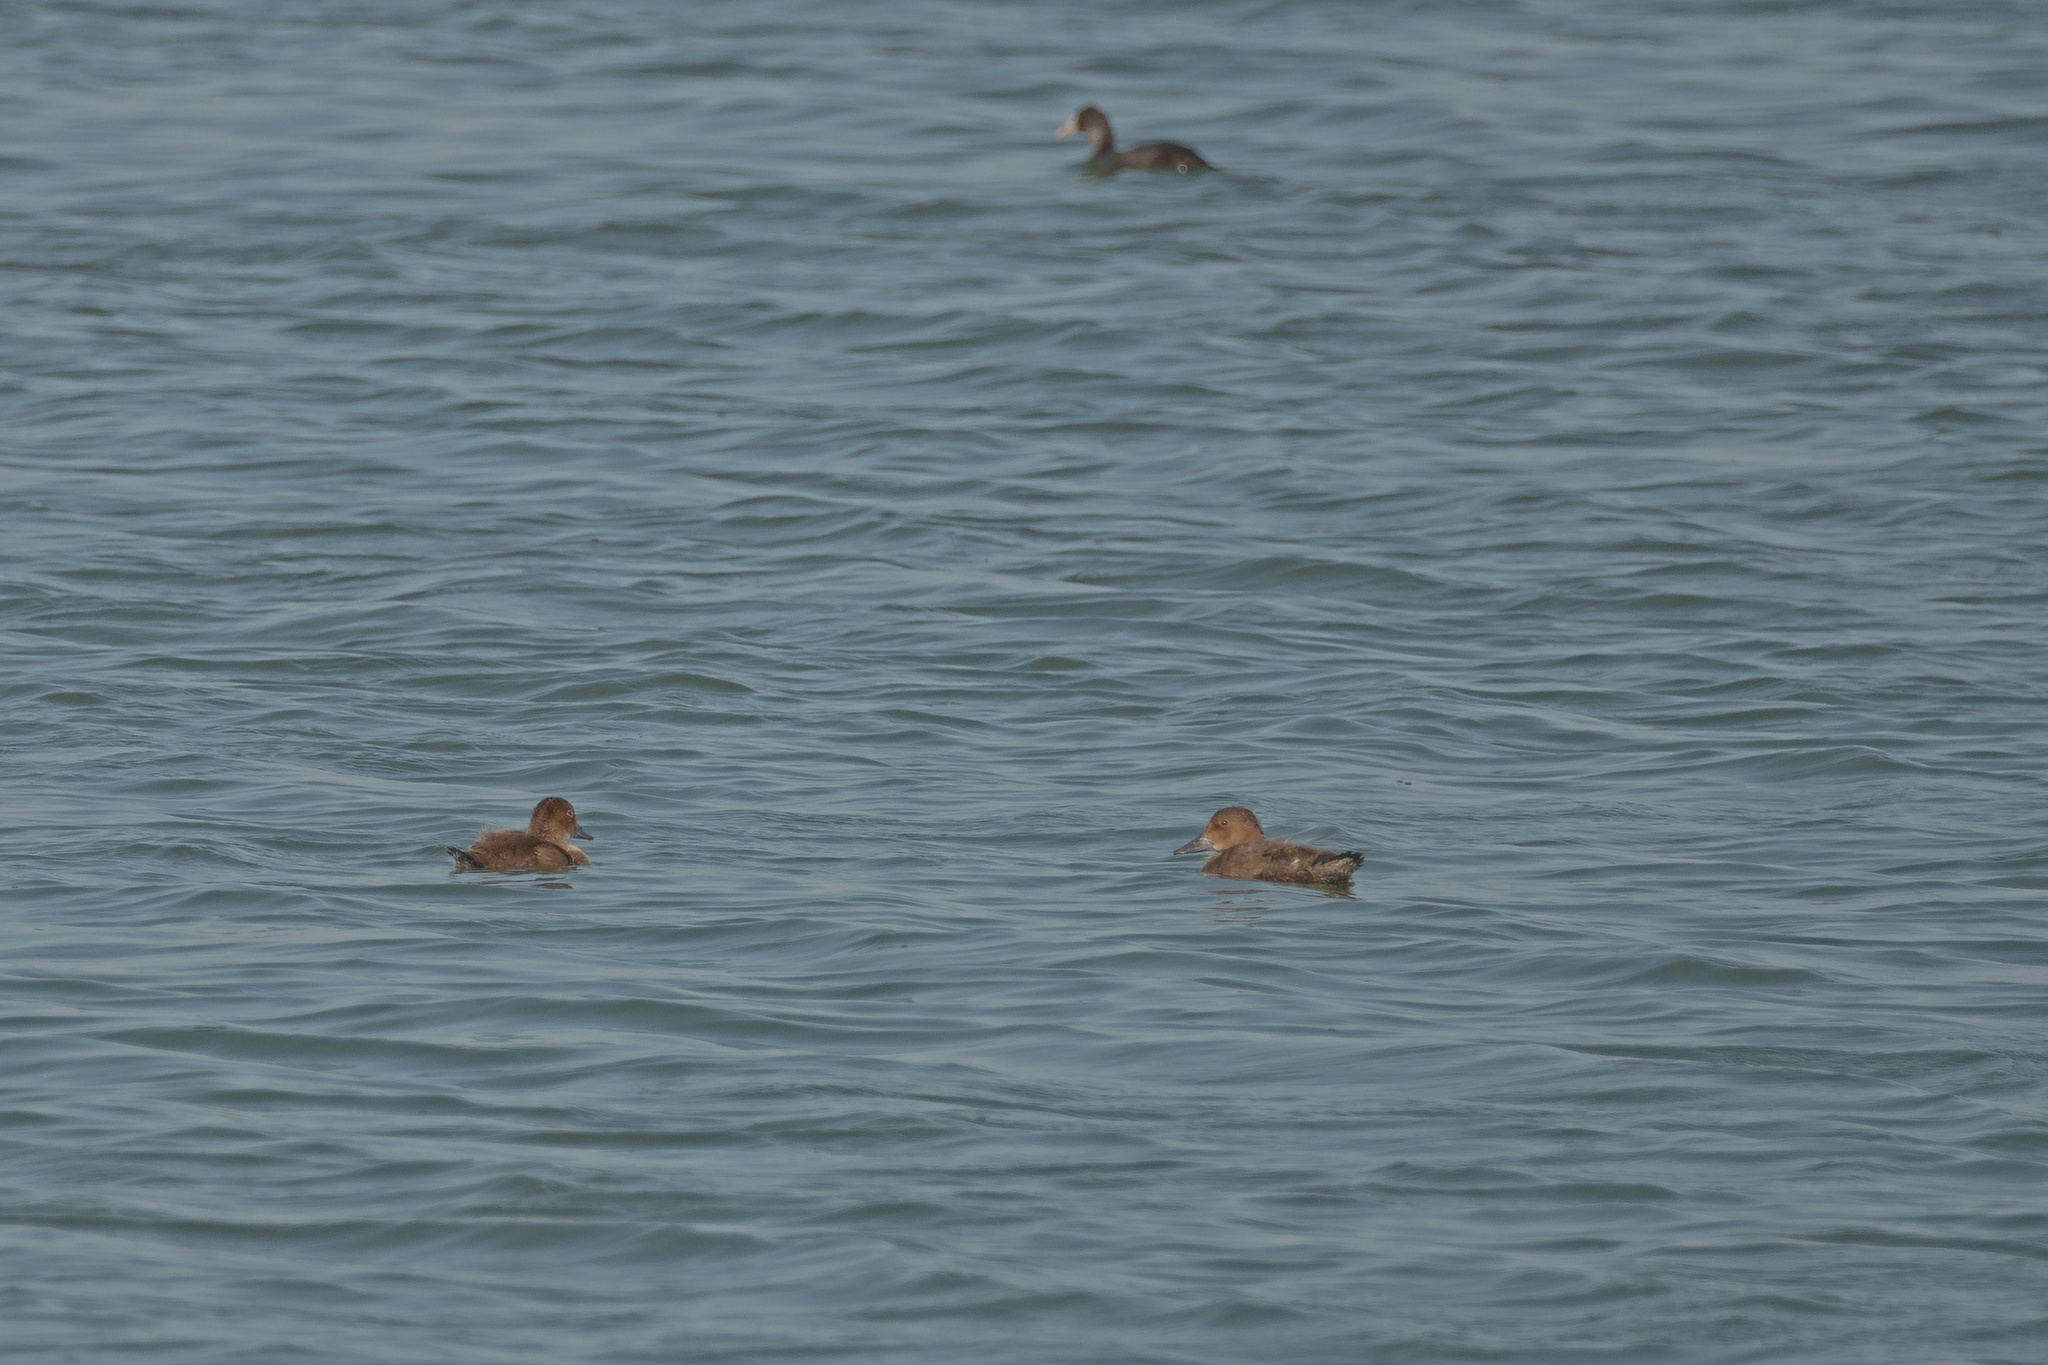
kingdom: Animalia
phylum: Chordata
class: Aves
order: Anseriformes
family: Anatidae
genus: Aythya
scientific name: Aythya ferina
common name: Common pochard
